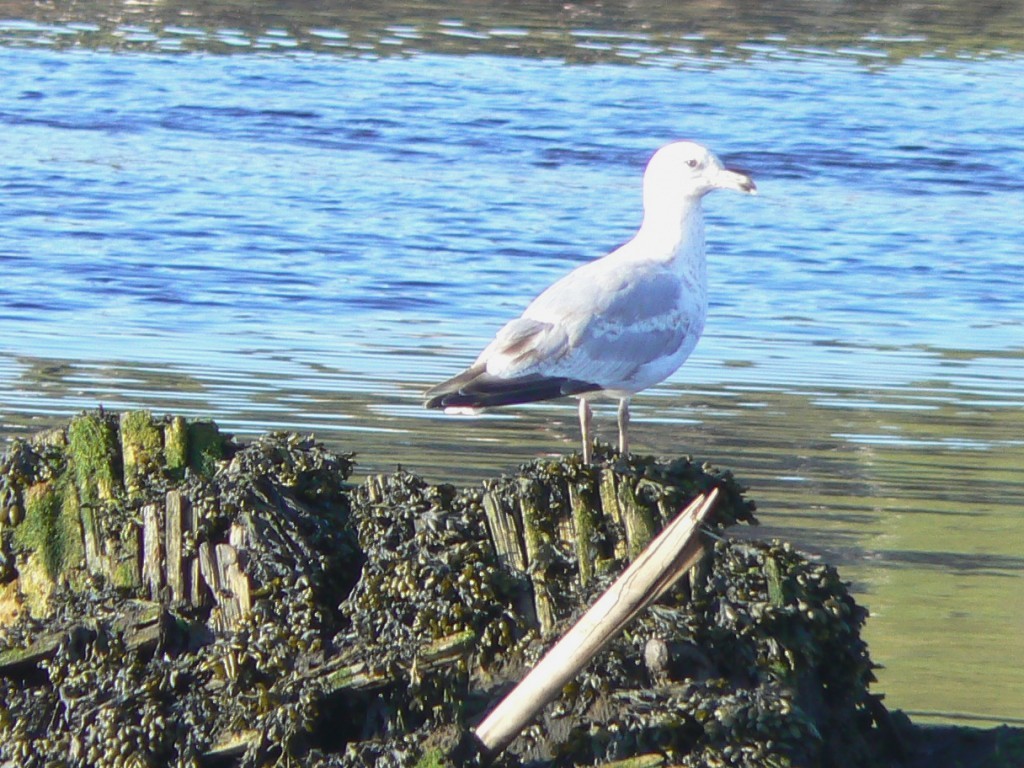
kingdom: Animalia
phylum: Chordata
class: Aves
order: Charadriiformes
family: Laridae
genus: Larus
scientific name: Larus argentatus
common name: Herring gull
